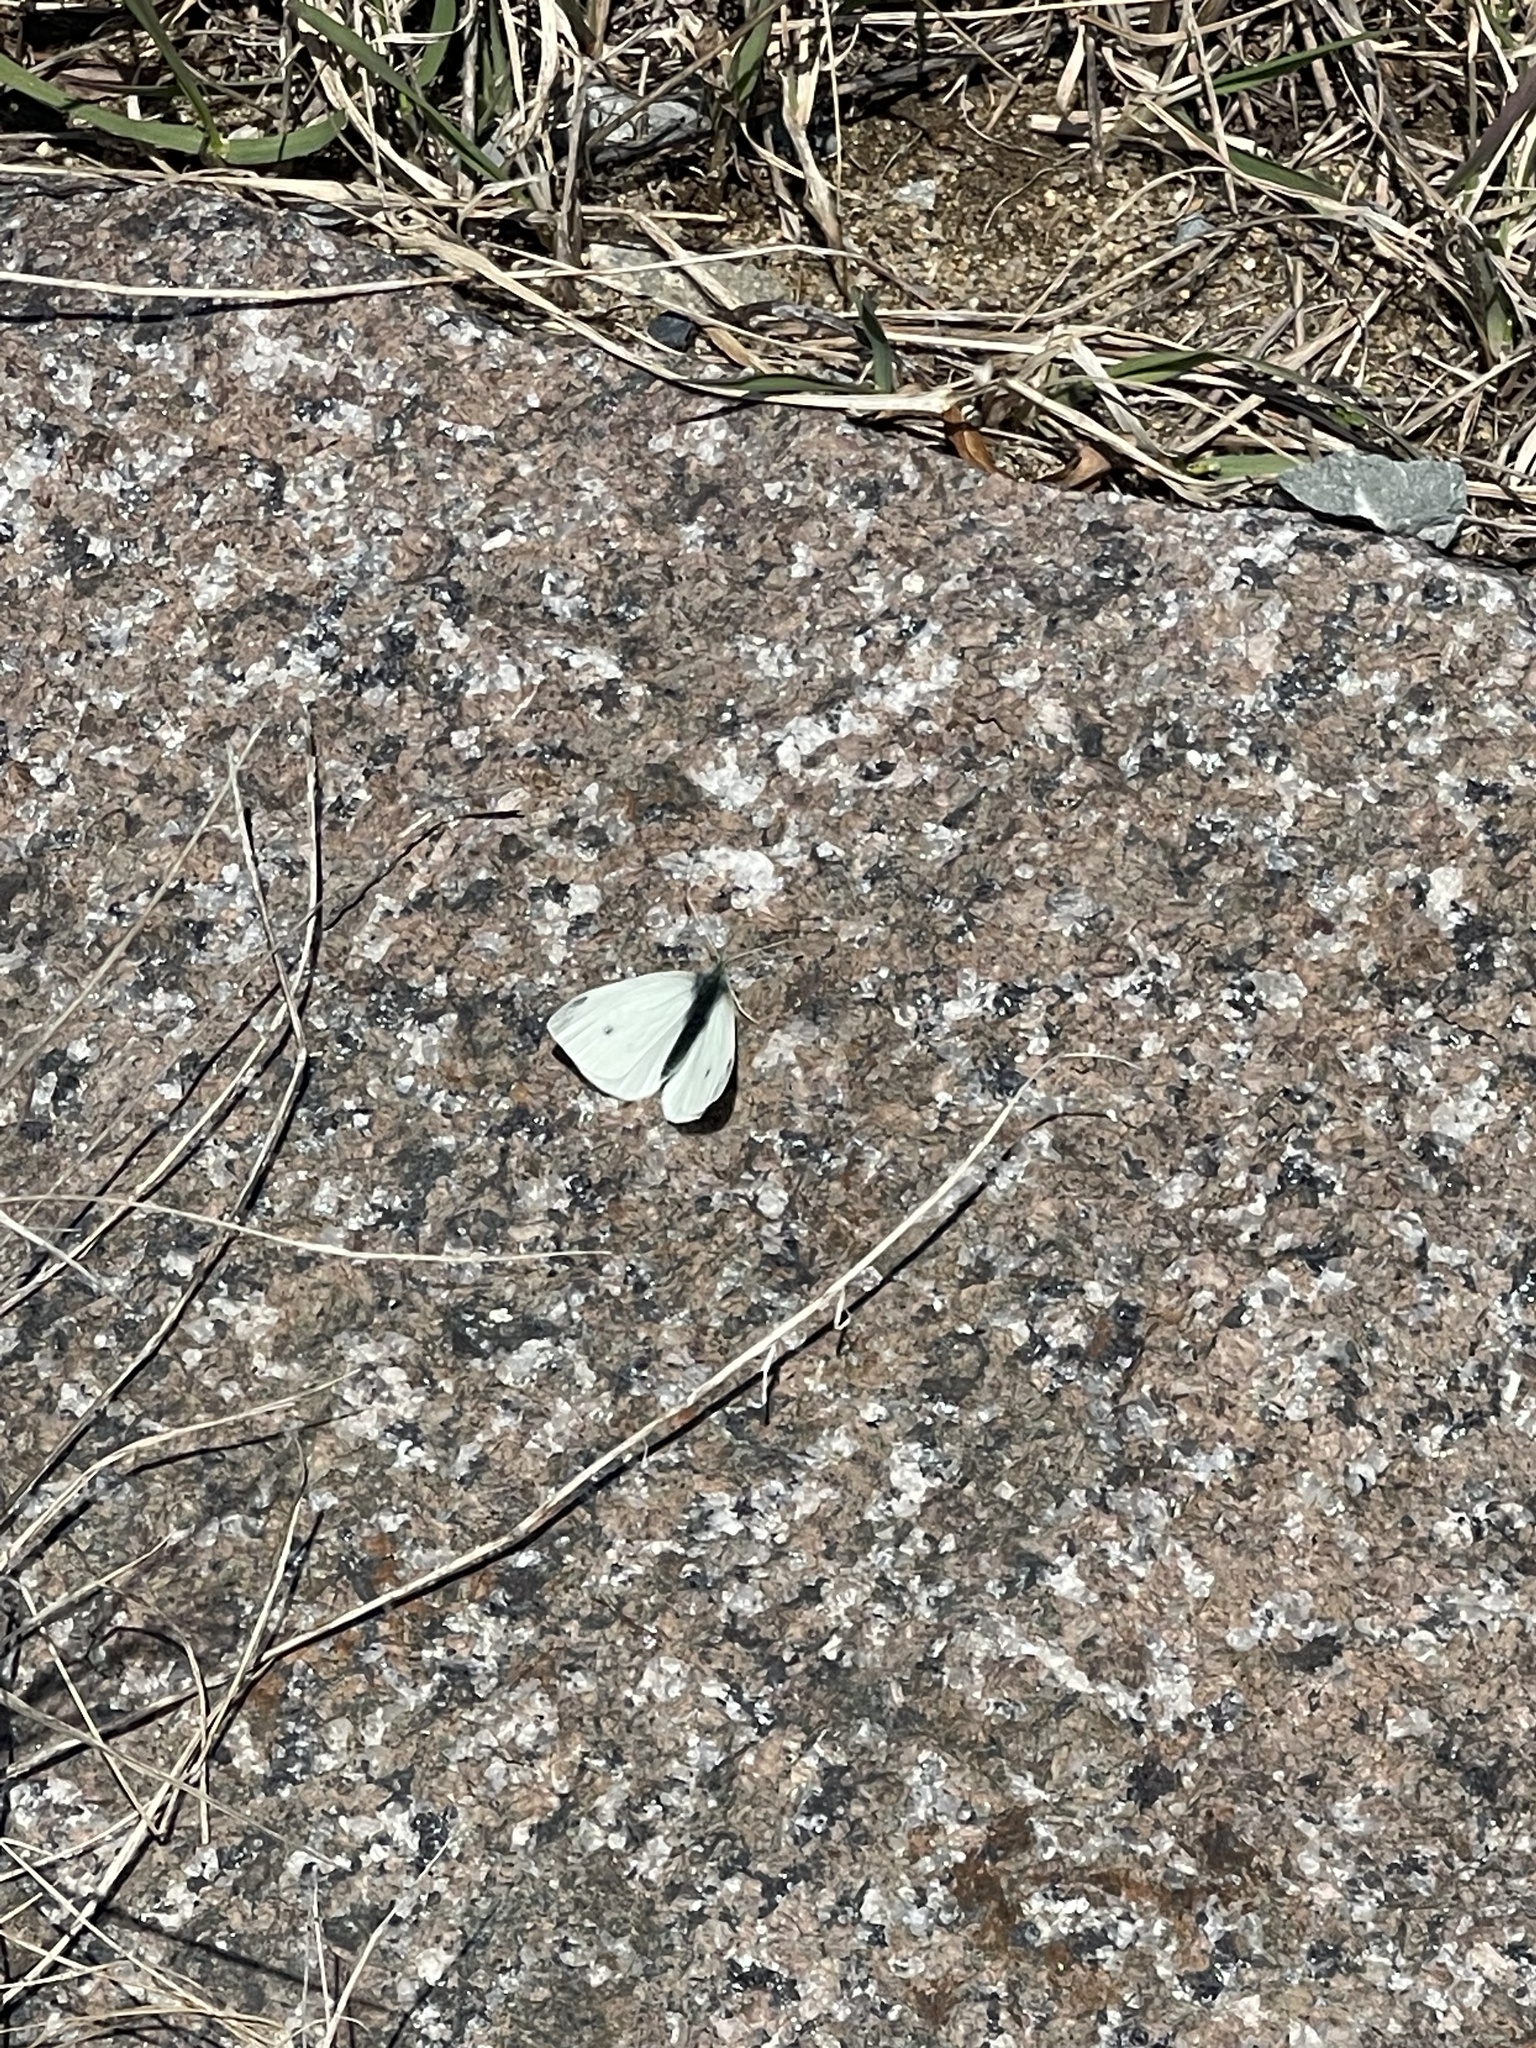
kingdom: Animalia
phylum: Arthropoda
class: Insecta
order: Lepidoptera
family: Pieridae
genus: Pieris
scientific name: Pieris rapae
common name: Small white
